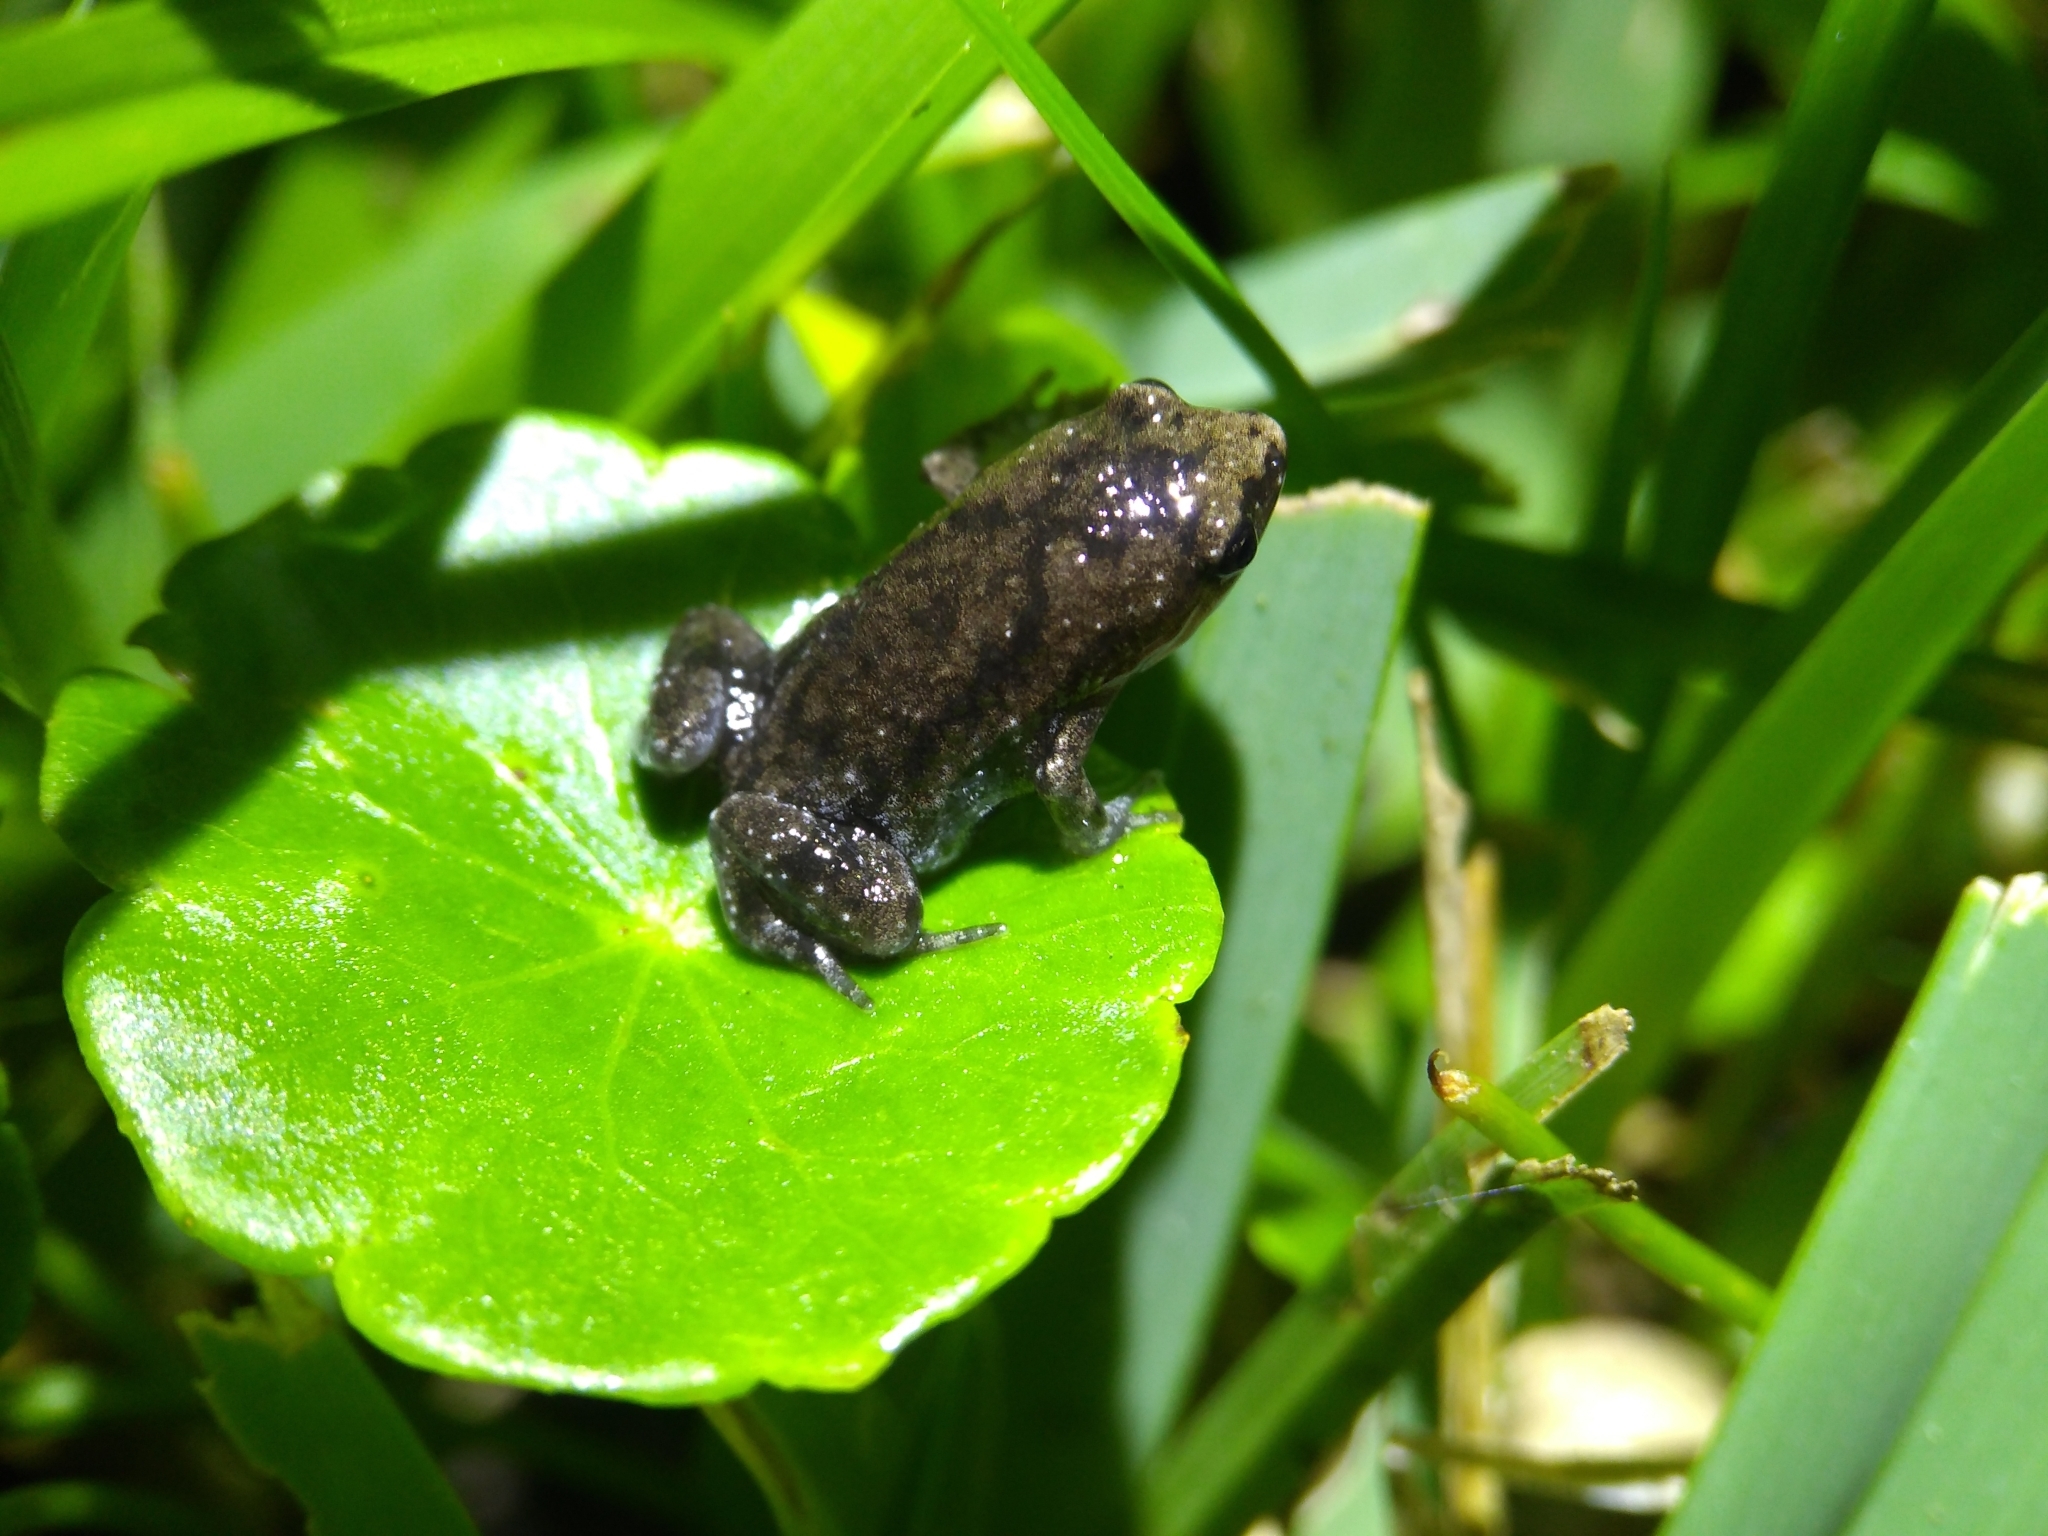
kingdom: Animalia
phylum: Chordata
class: Amphibia
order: Anura
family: Microhylidae
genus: Gastrophryne
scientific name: Gastrophryne carolinensis
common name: Eastern narrowmouth toad
